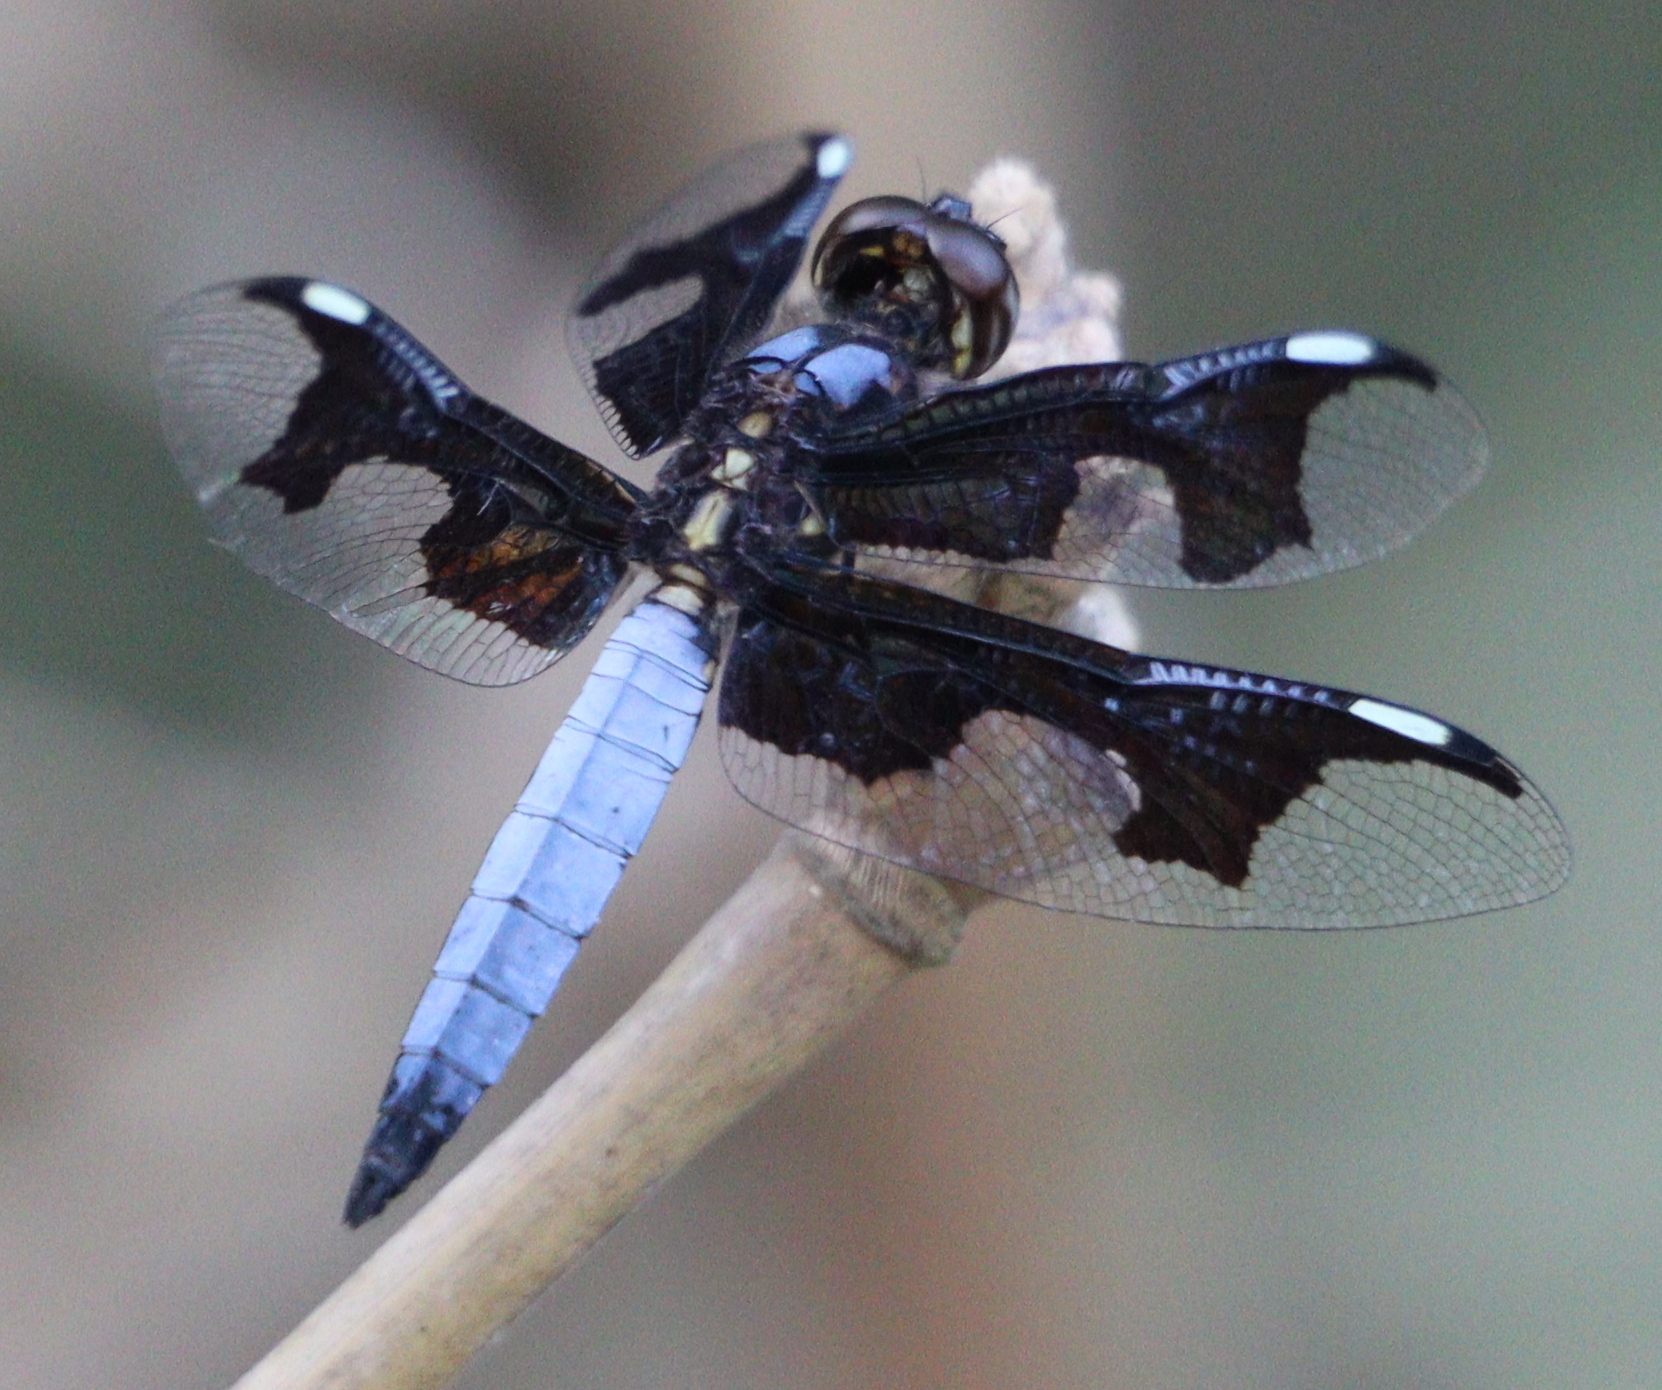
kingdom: Animalia
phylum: Arthropoda
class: Insecta
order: Odonata
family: Libellulidae
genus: Palpopleura
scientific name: Palpopleura portia
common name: Portia widow
